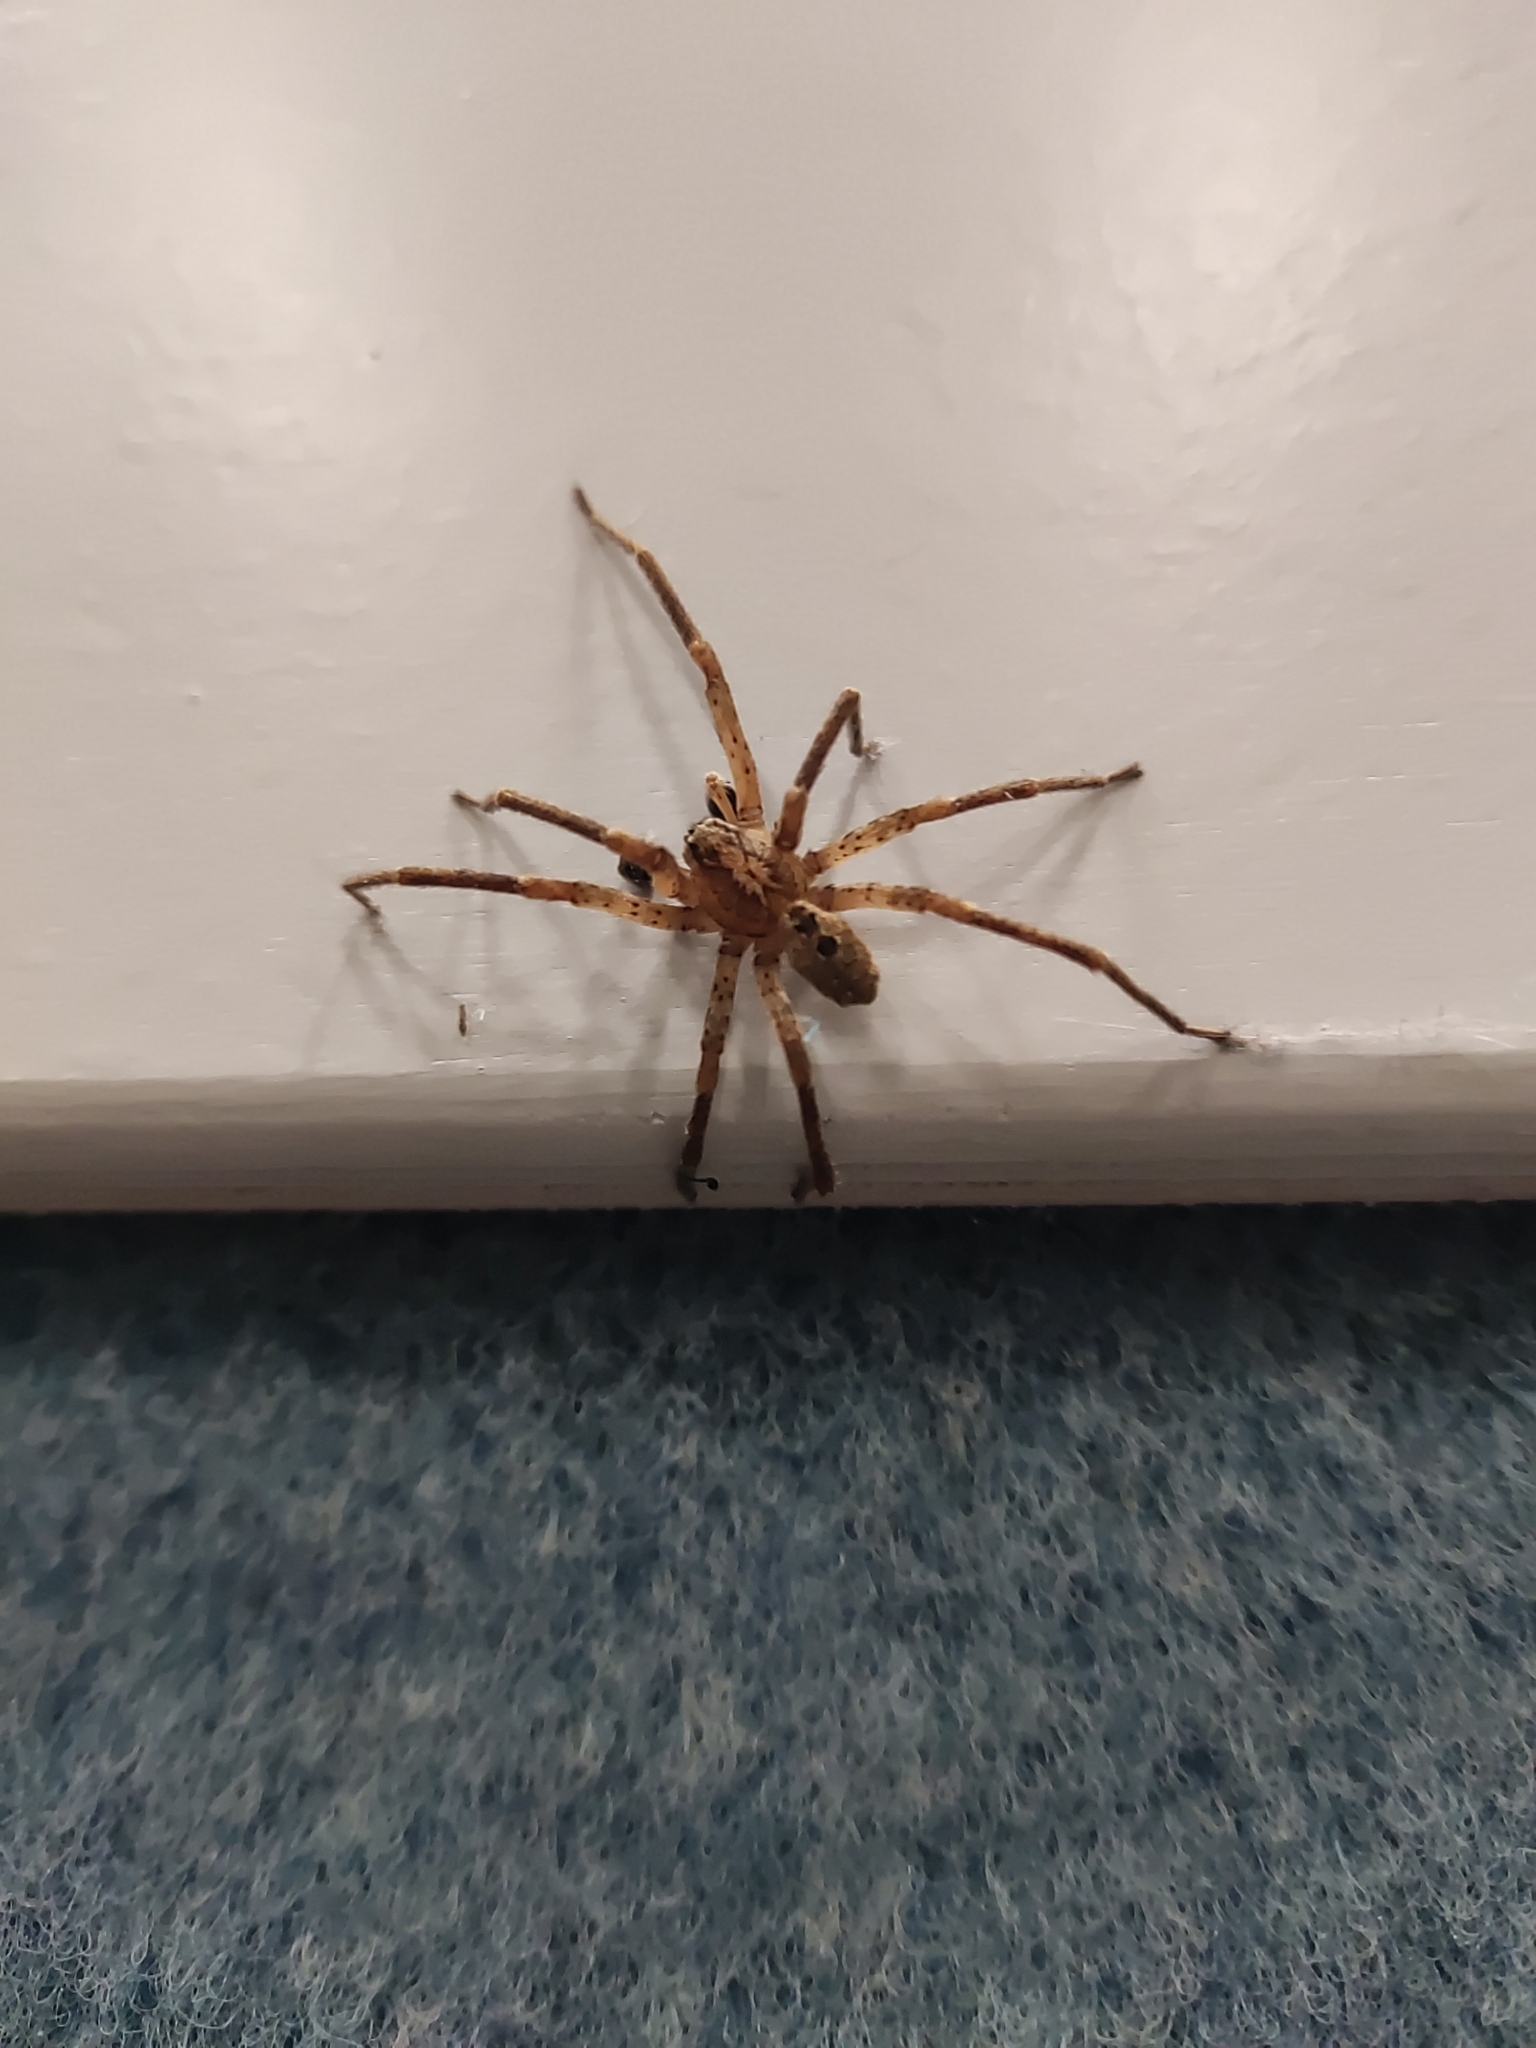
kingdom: Animalia
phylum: Arthropoda
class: Arachnida
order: Araneae
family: Zoropsidae
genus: Zoropsis
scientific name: Zoropsis spinimana
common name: Zoropsid spider
